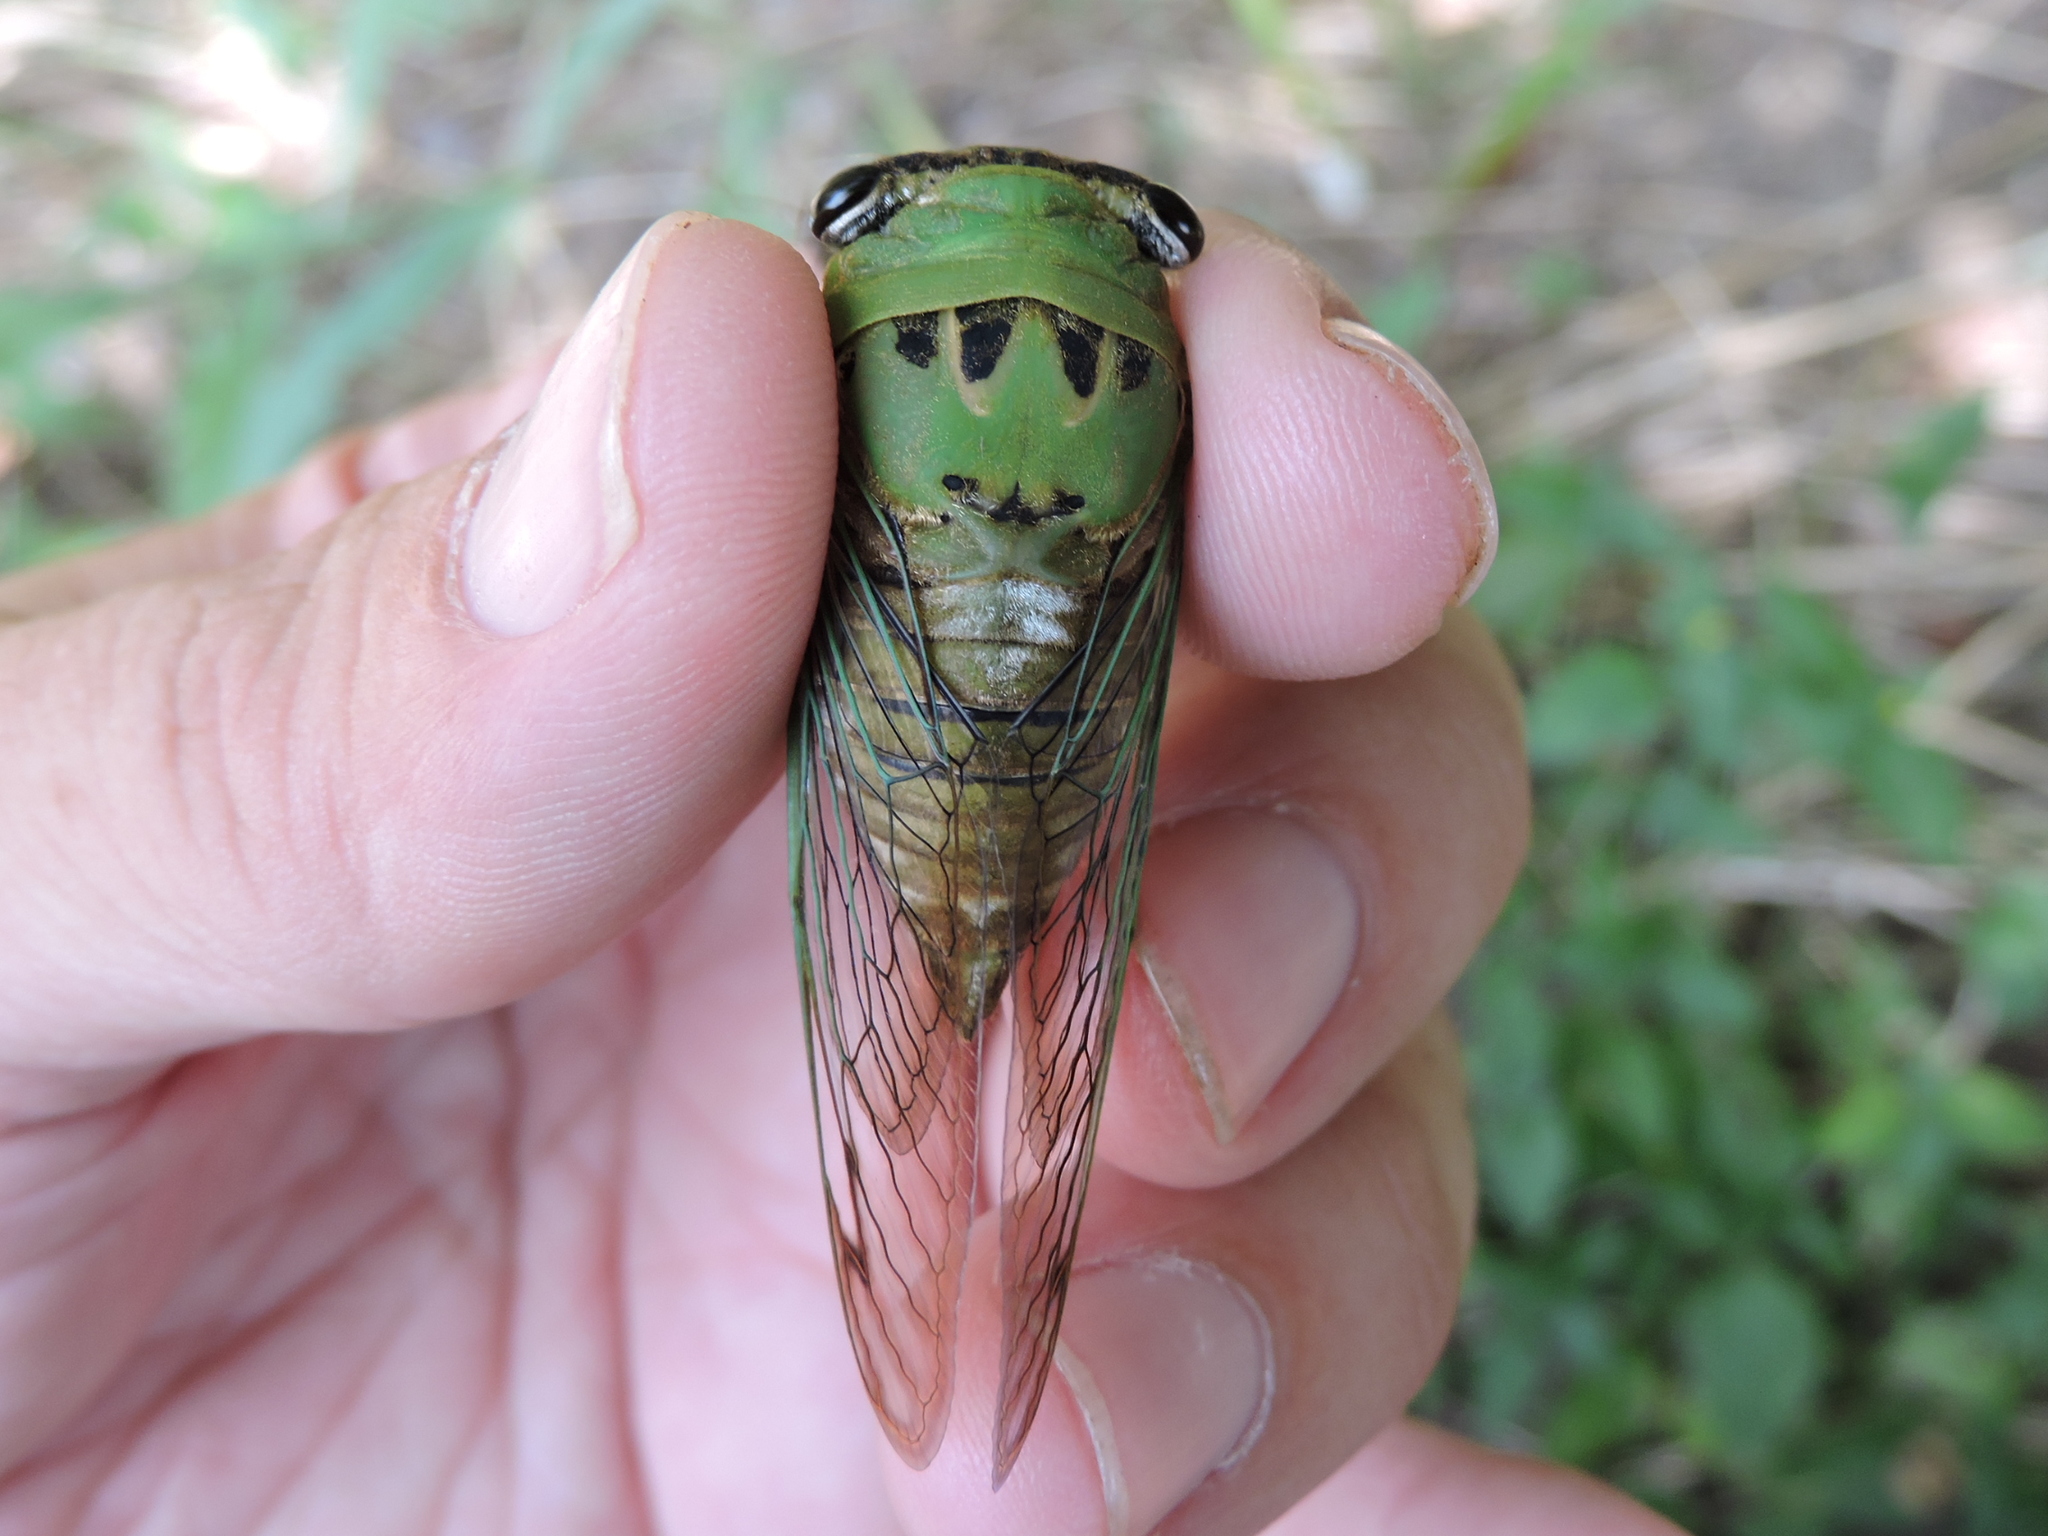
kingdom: Animalia
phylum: Arthropoda
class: Insecta
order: Hemiptera
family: Cicadidae
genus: Neotibicen
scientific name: Neotibicen superbus
